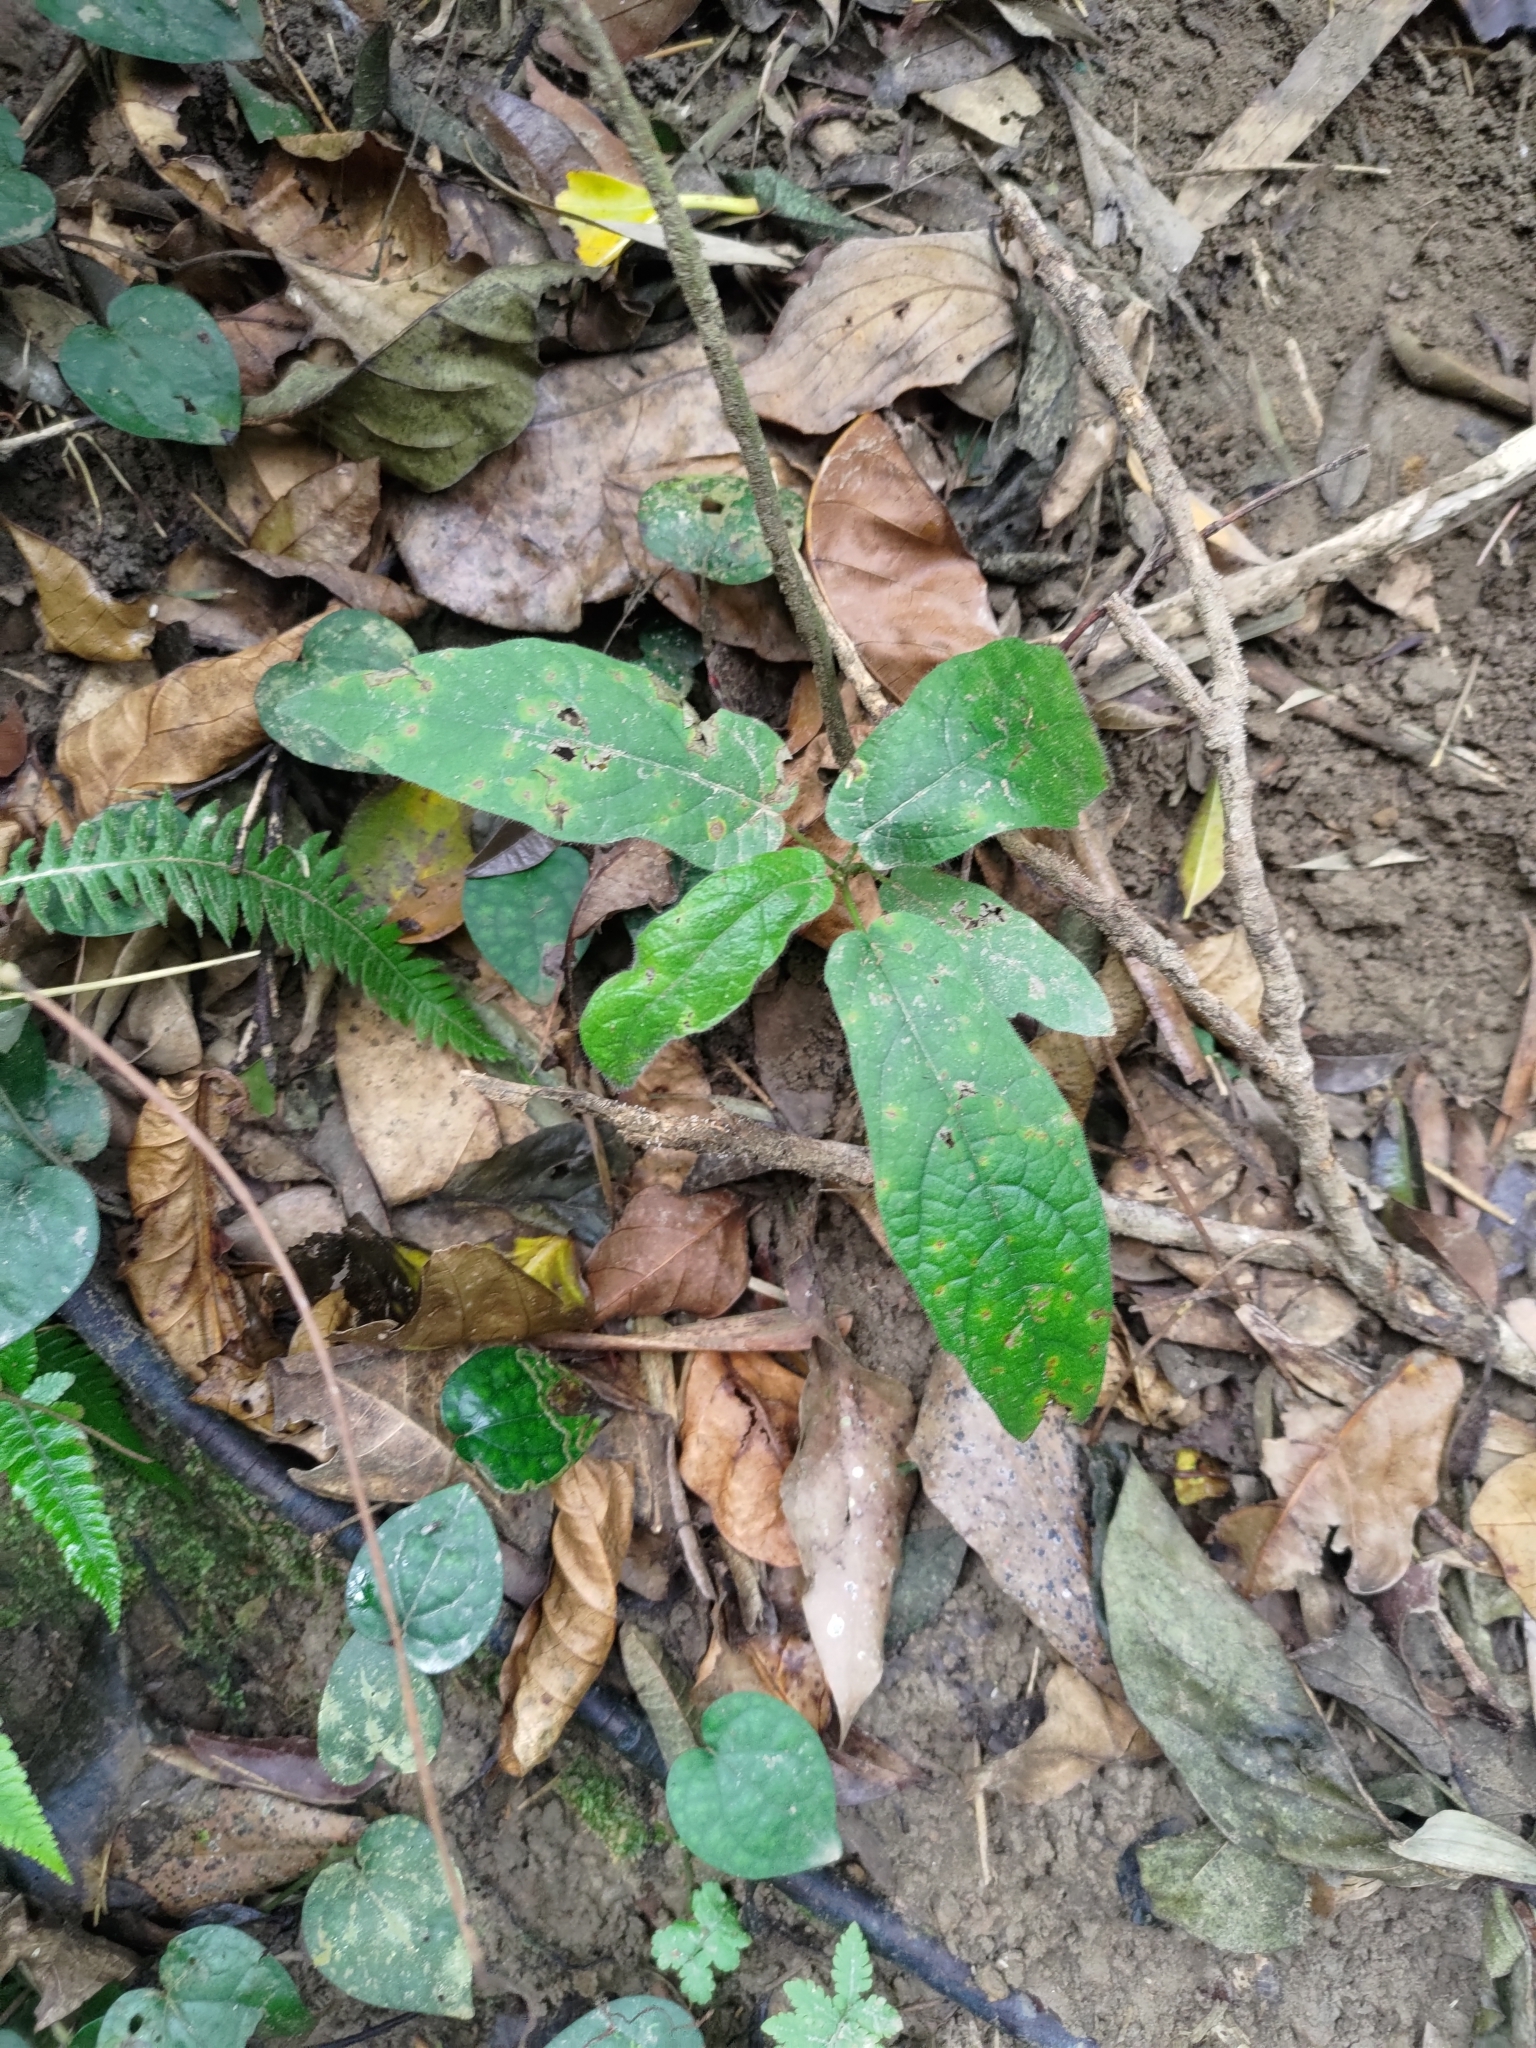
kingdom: Plantae
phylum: Tracheophyta
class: Magnoliopsida
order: Rosales
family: Moraceae
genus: Ficus
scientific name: Ficus erecta
